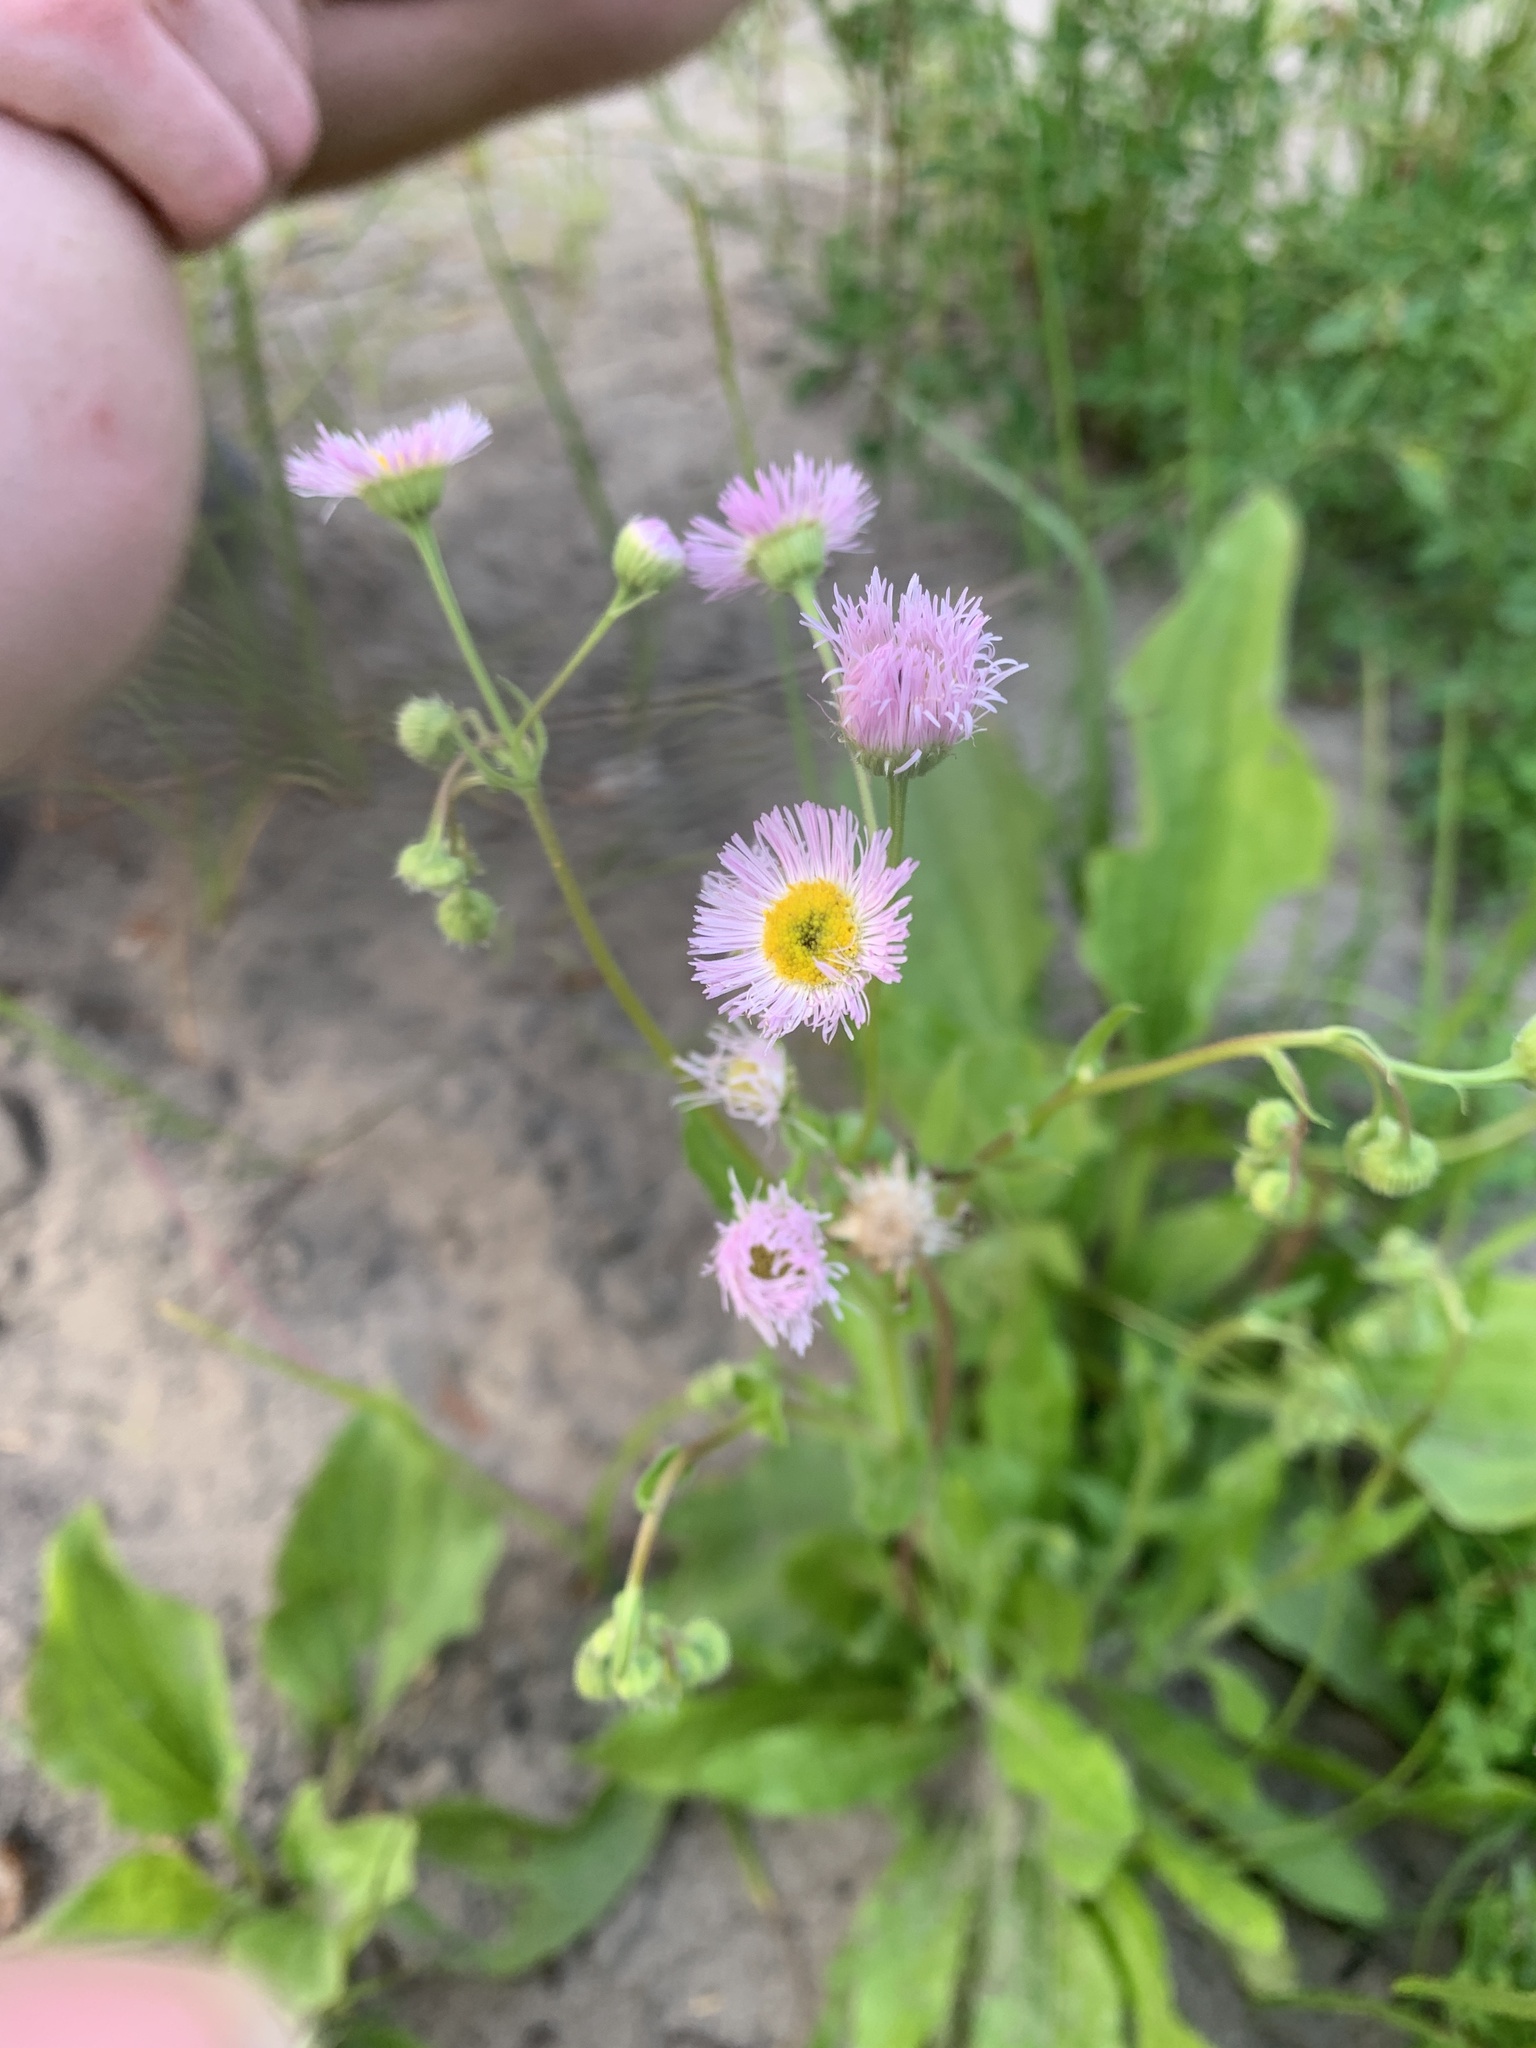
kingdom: Plantae
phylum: Tracheophyta
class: Magnoliopsida
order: Asterales
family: Asteraceae
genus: Erigeron
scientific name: Erigeron philadelphicus
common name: Robin's-plantain
